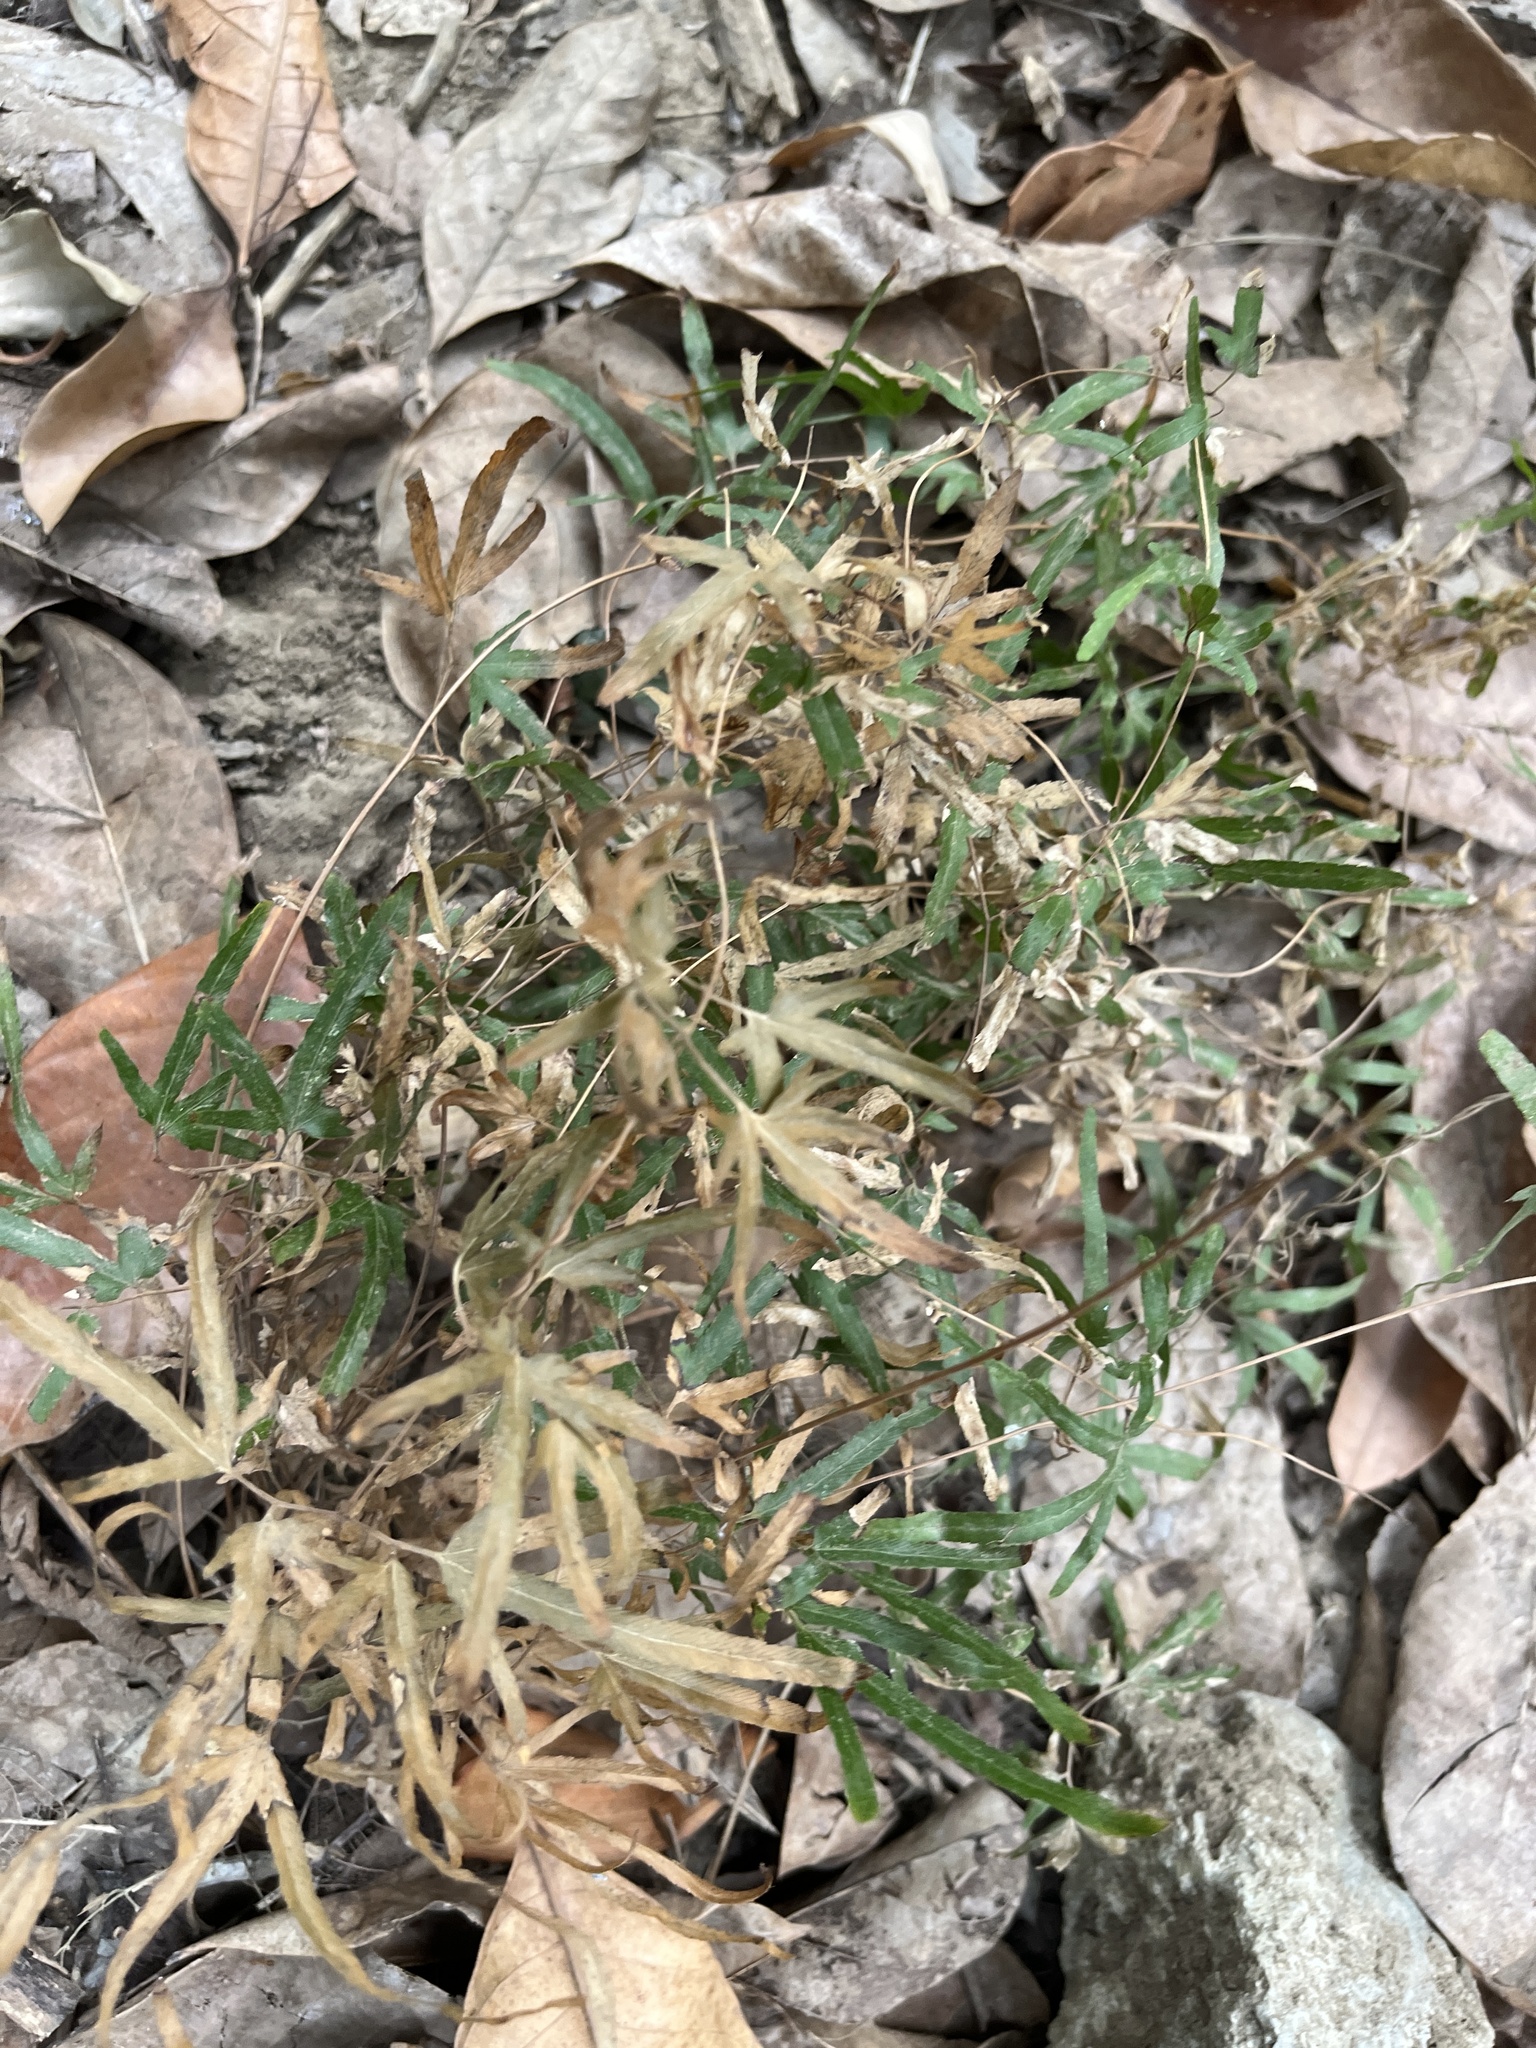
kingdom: Plantae
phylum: Tracheophyta
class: Polypodiopsida
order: Schizaeales
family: Lygodiaceae
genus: Lygodium
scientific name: Lygodium japonicum
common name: Japanese climbing fern
